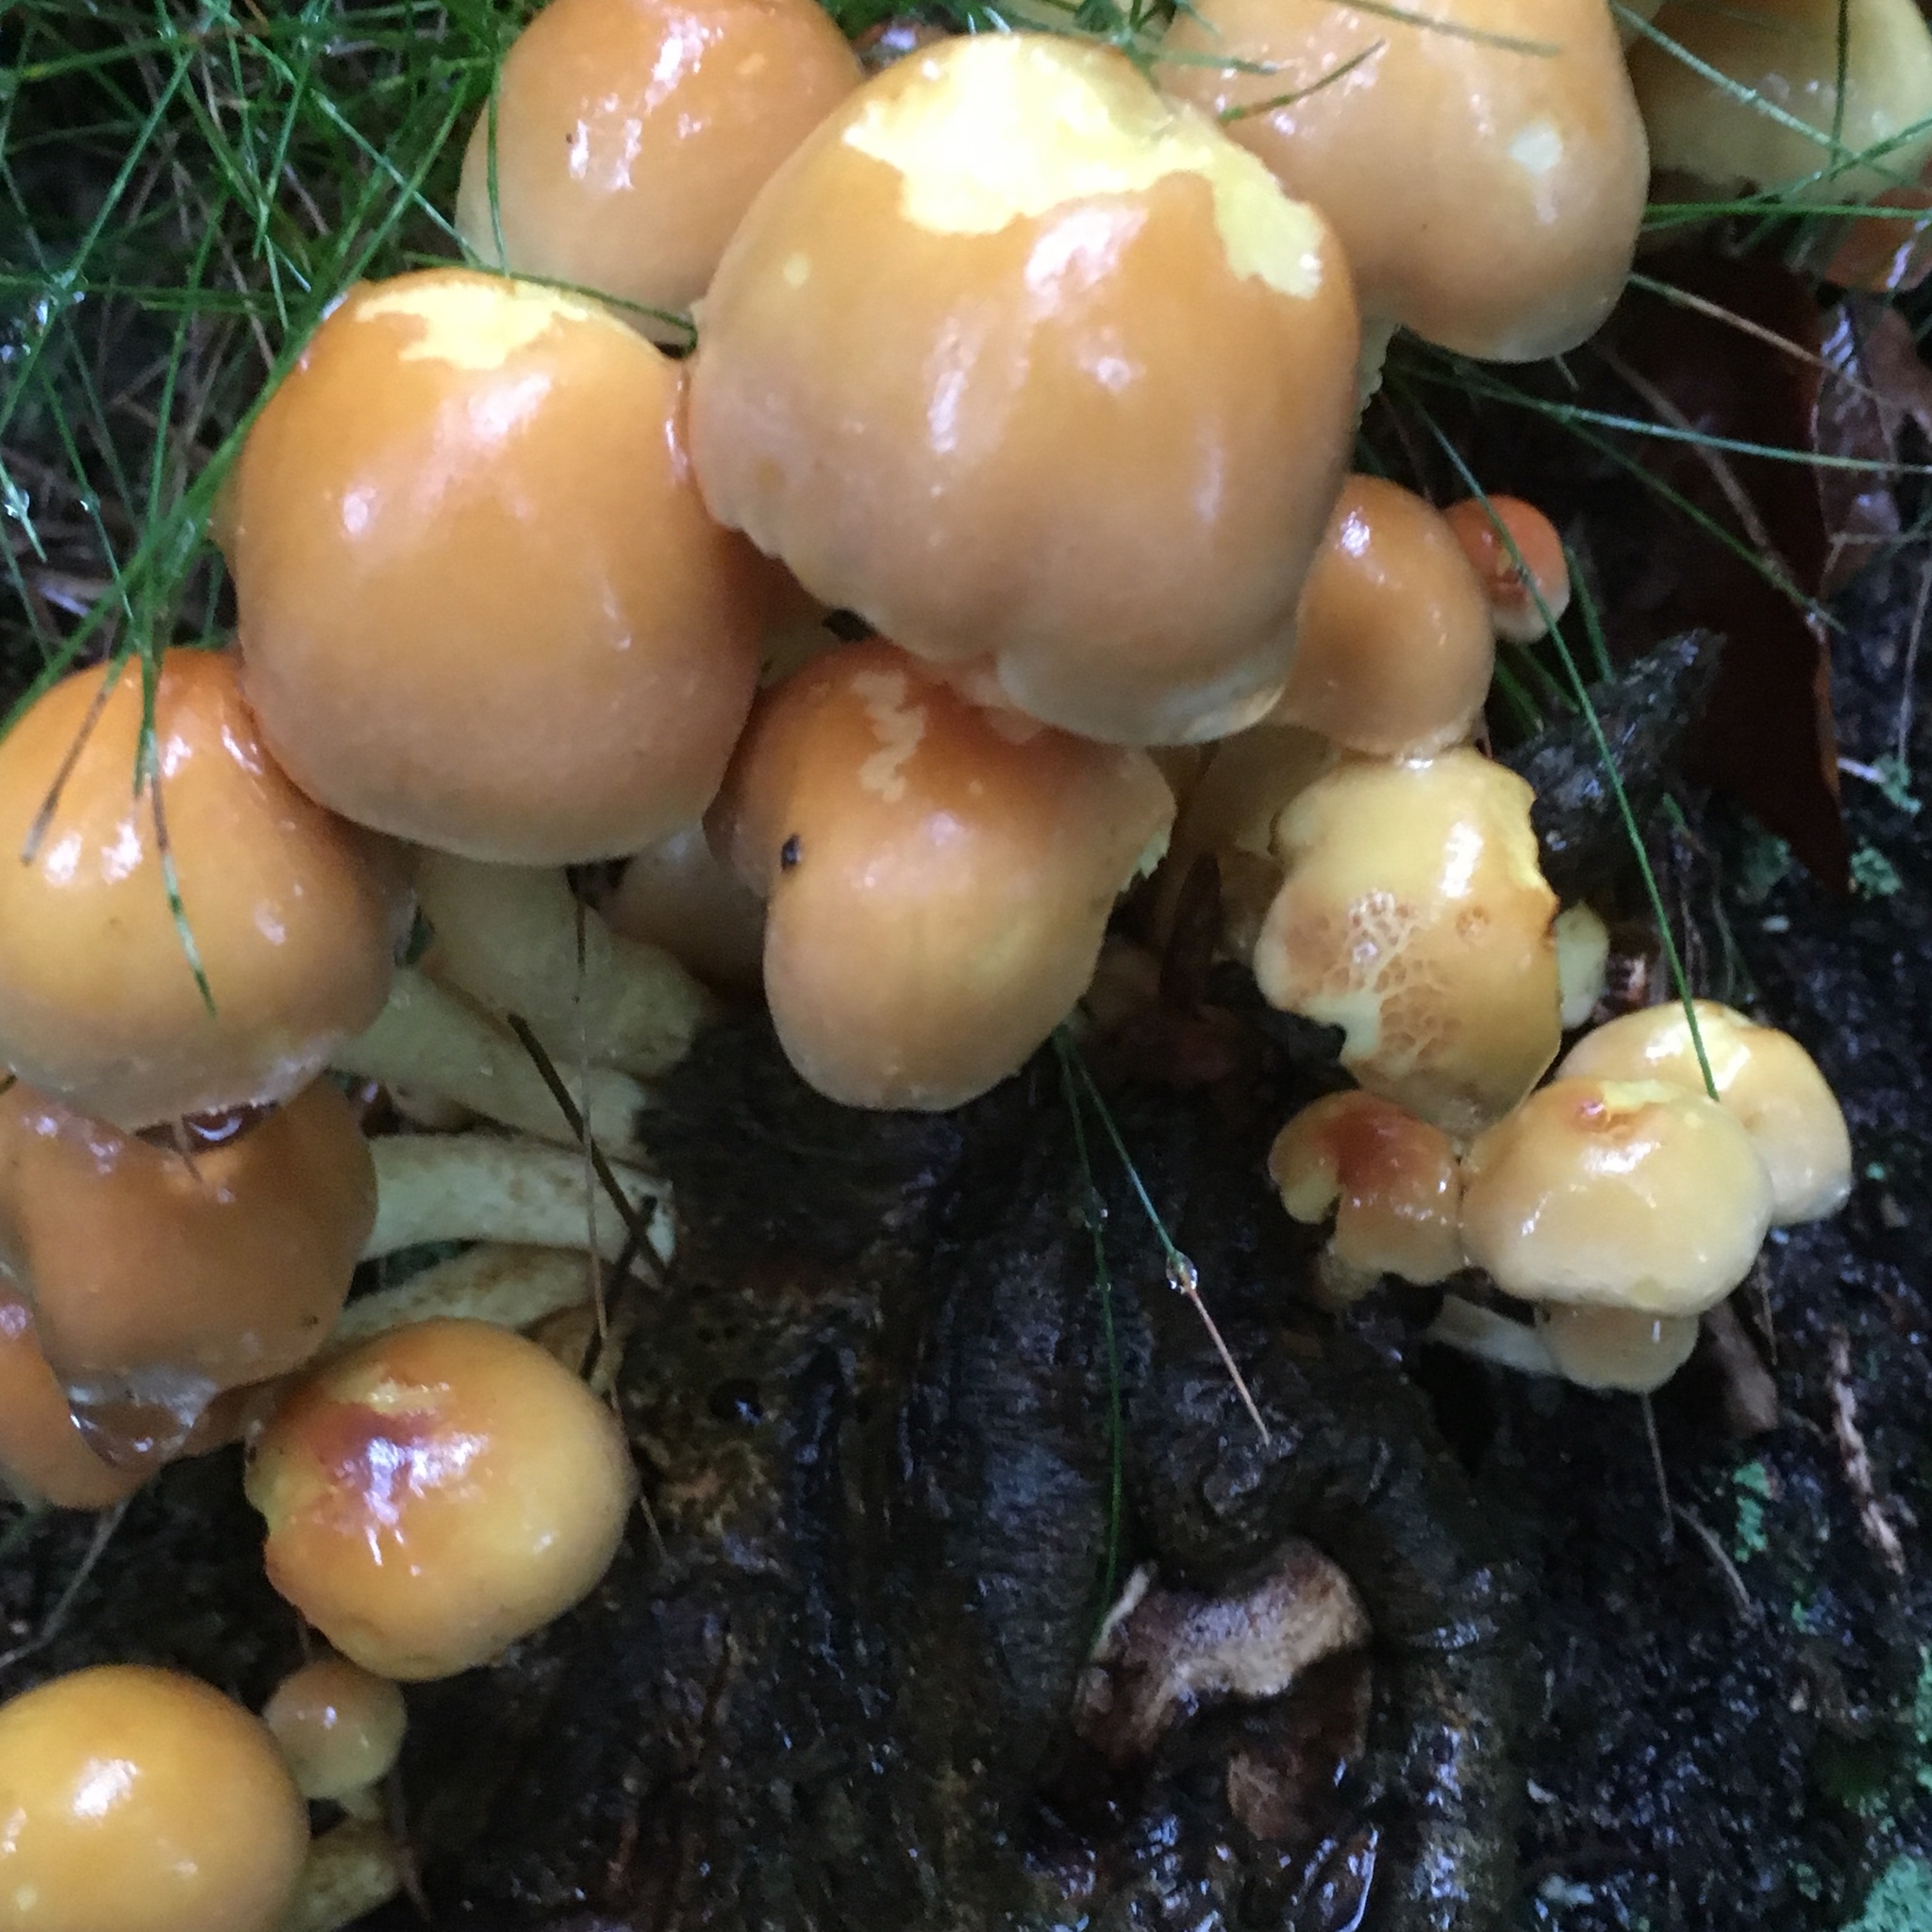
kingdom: Fungi
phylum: Basidiomycota
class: Agaricomycetes
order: Agaricales
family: Strophariaceae
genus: Hypholoma
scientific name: Hypholoma fasciculare
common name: Sulphur tuft
